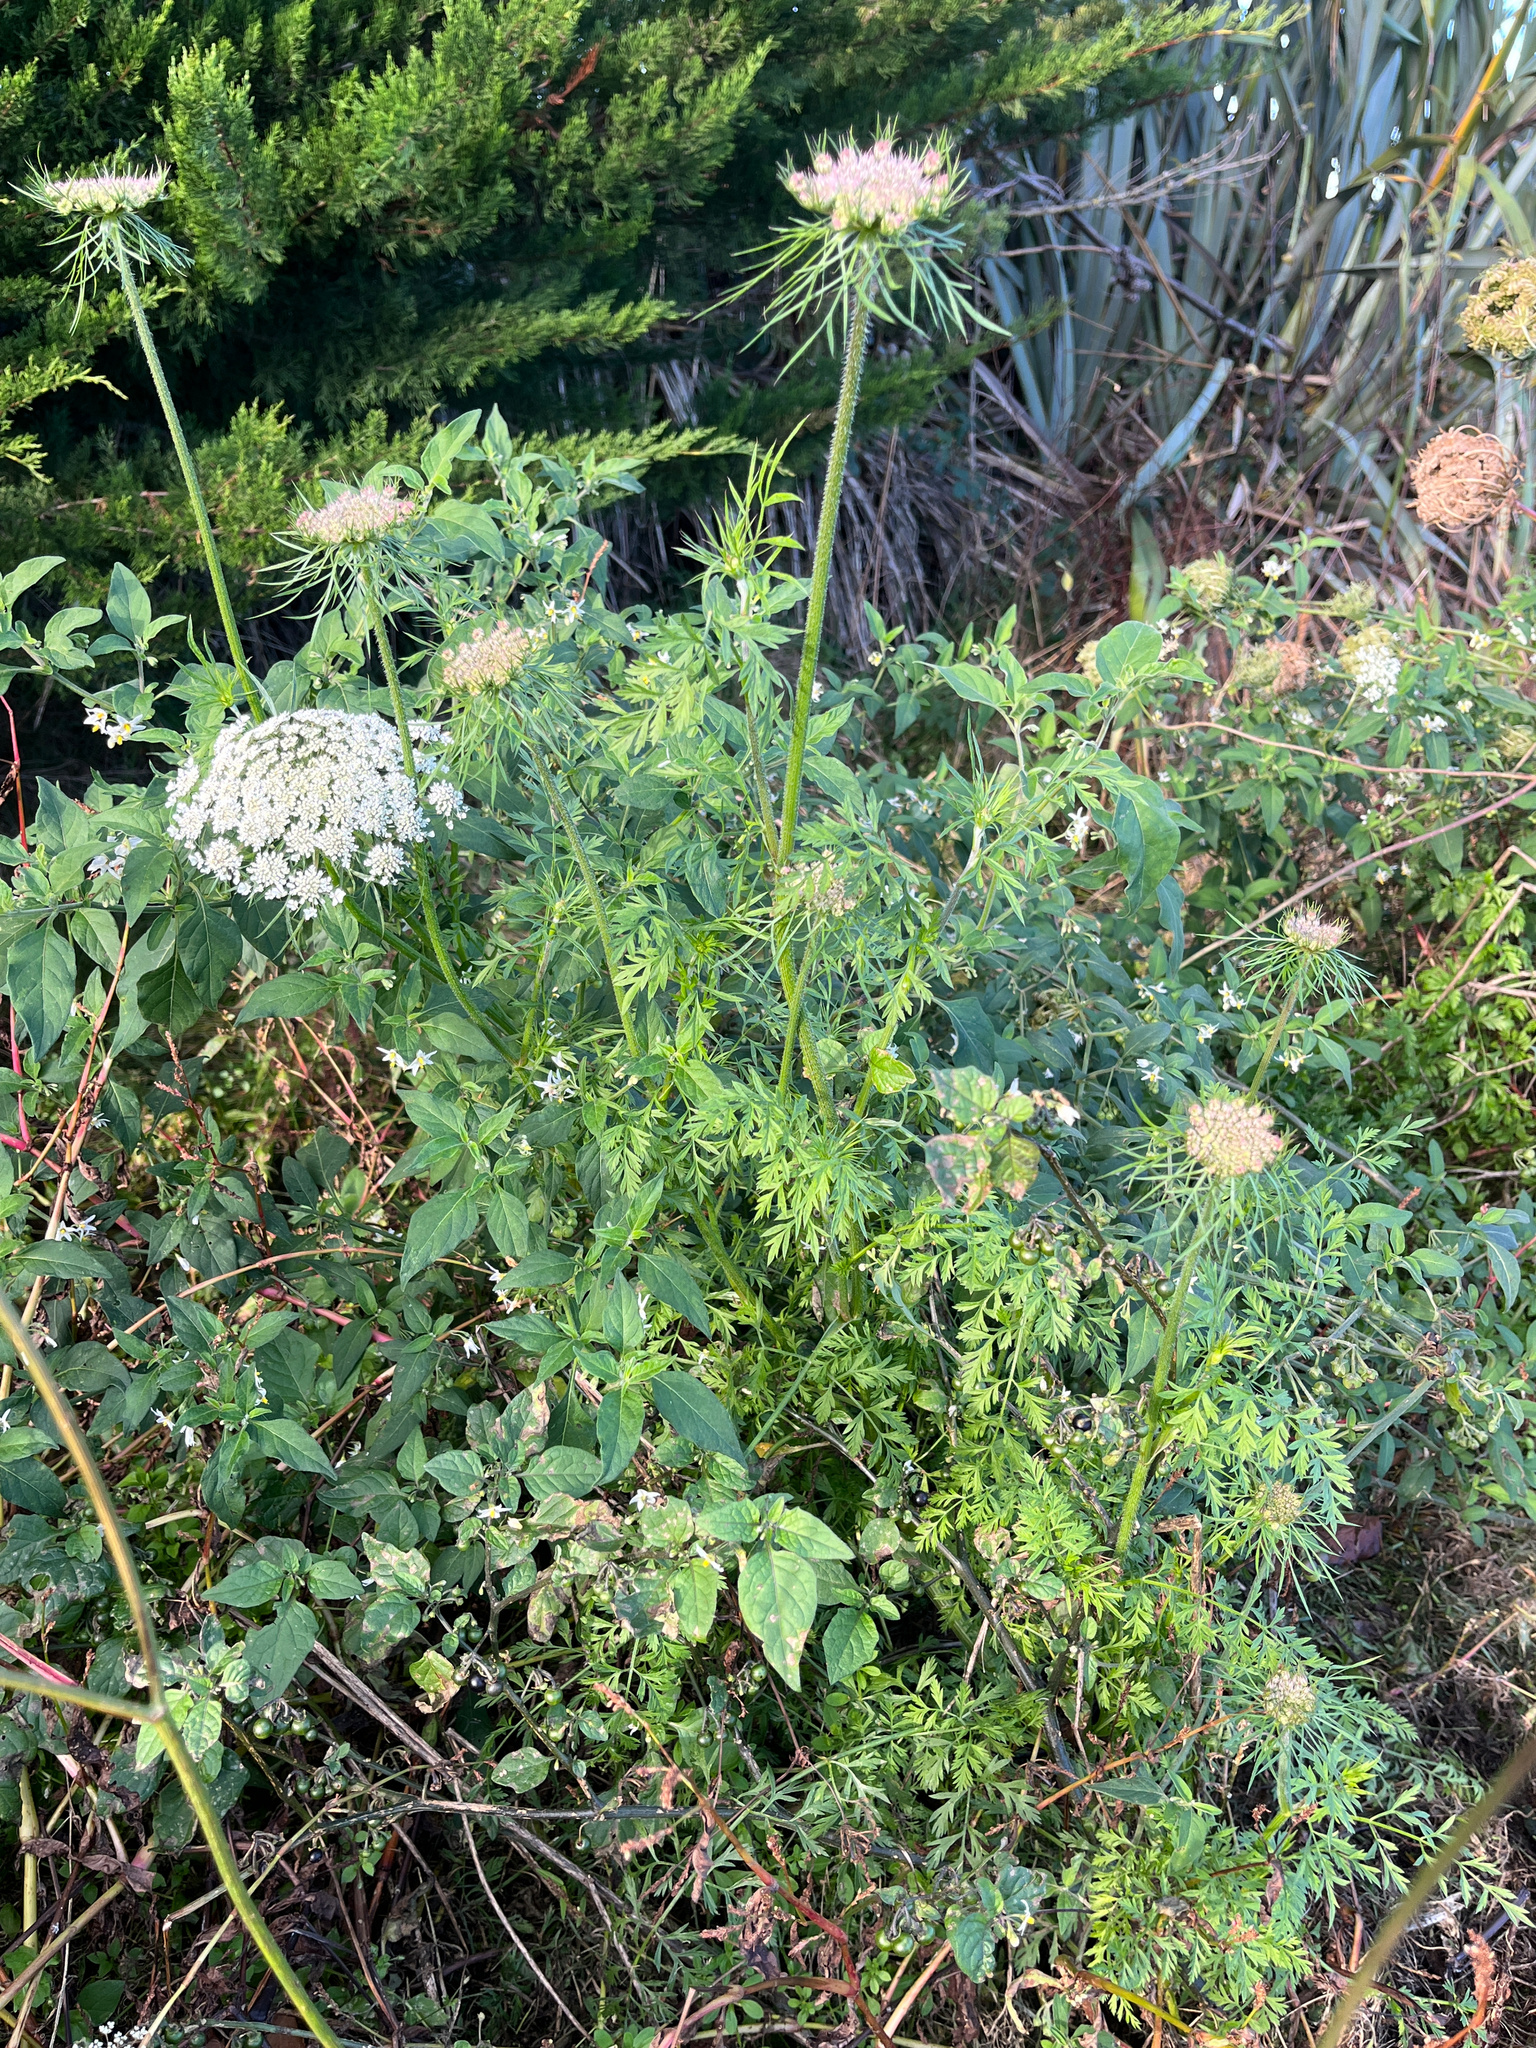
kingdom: Plantae
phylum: Tracheophyta
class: Magnoliopsida
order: Apiales
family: Apiaceae
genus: Daucus
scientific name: Daucus carota
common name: Wild carrot
